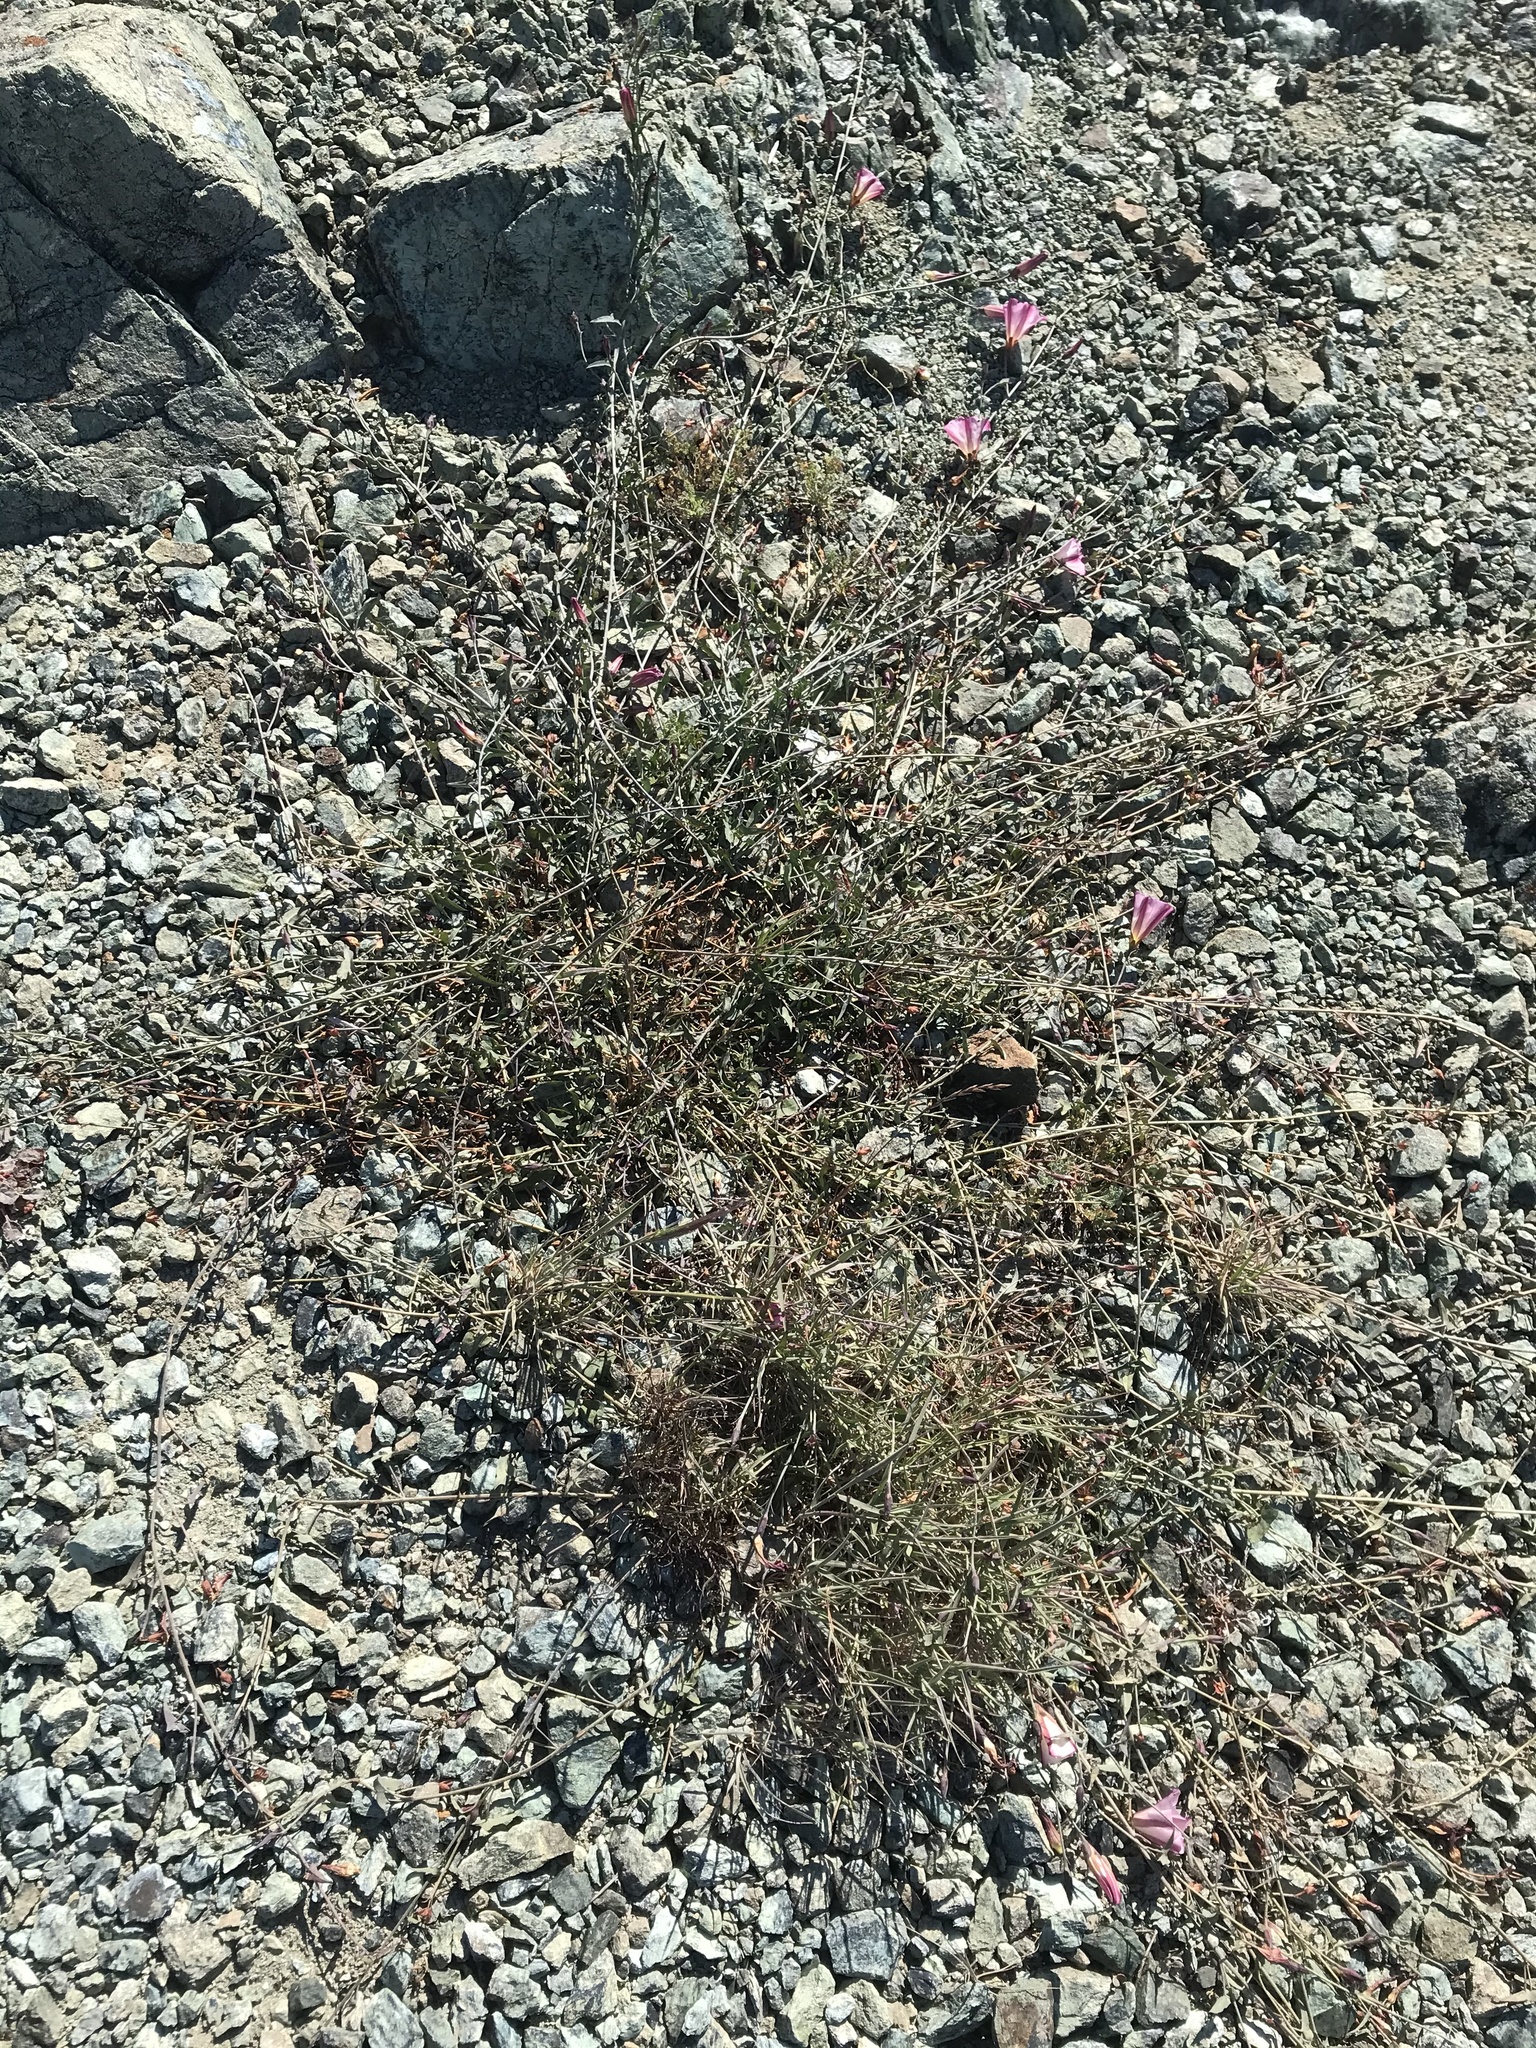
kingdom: Plantae
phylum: Tracheophyta
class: Magnoliopsida
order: Solanales
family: Convolvulaceae
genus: Calystegia
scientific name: Calystegia purpurata
